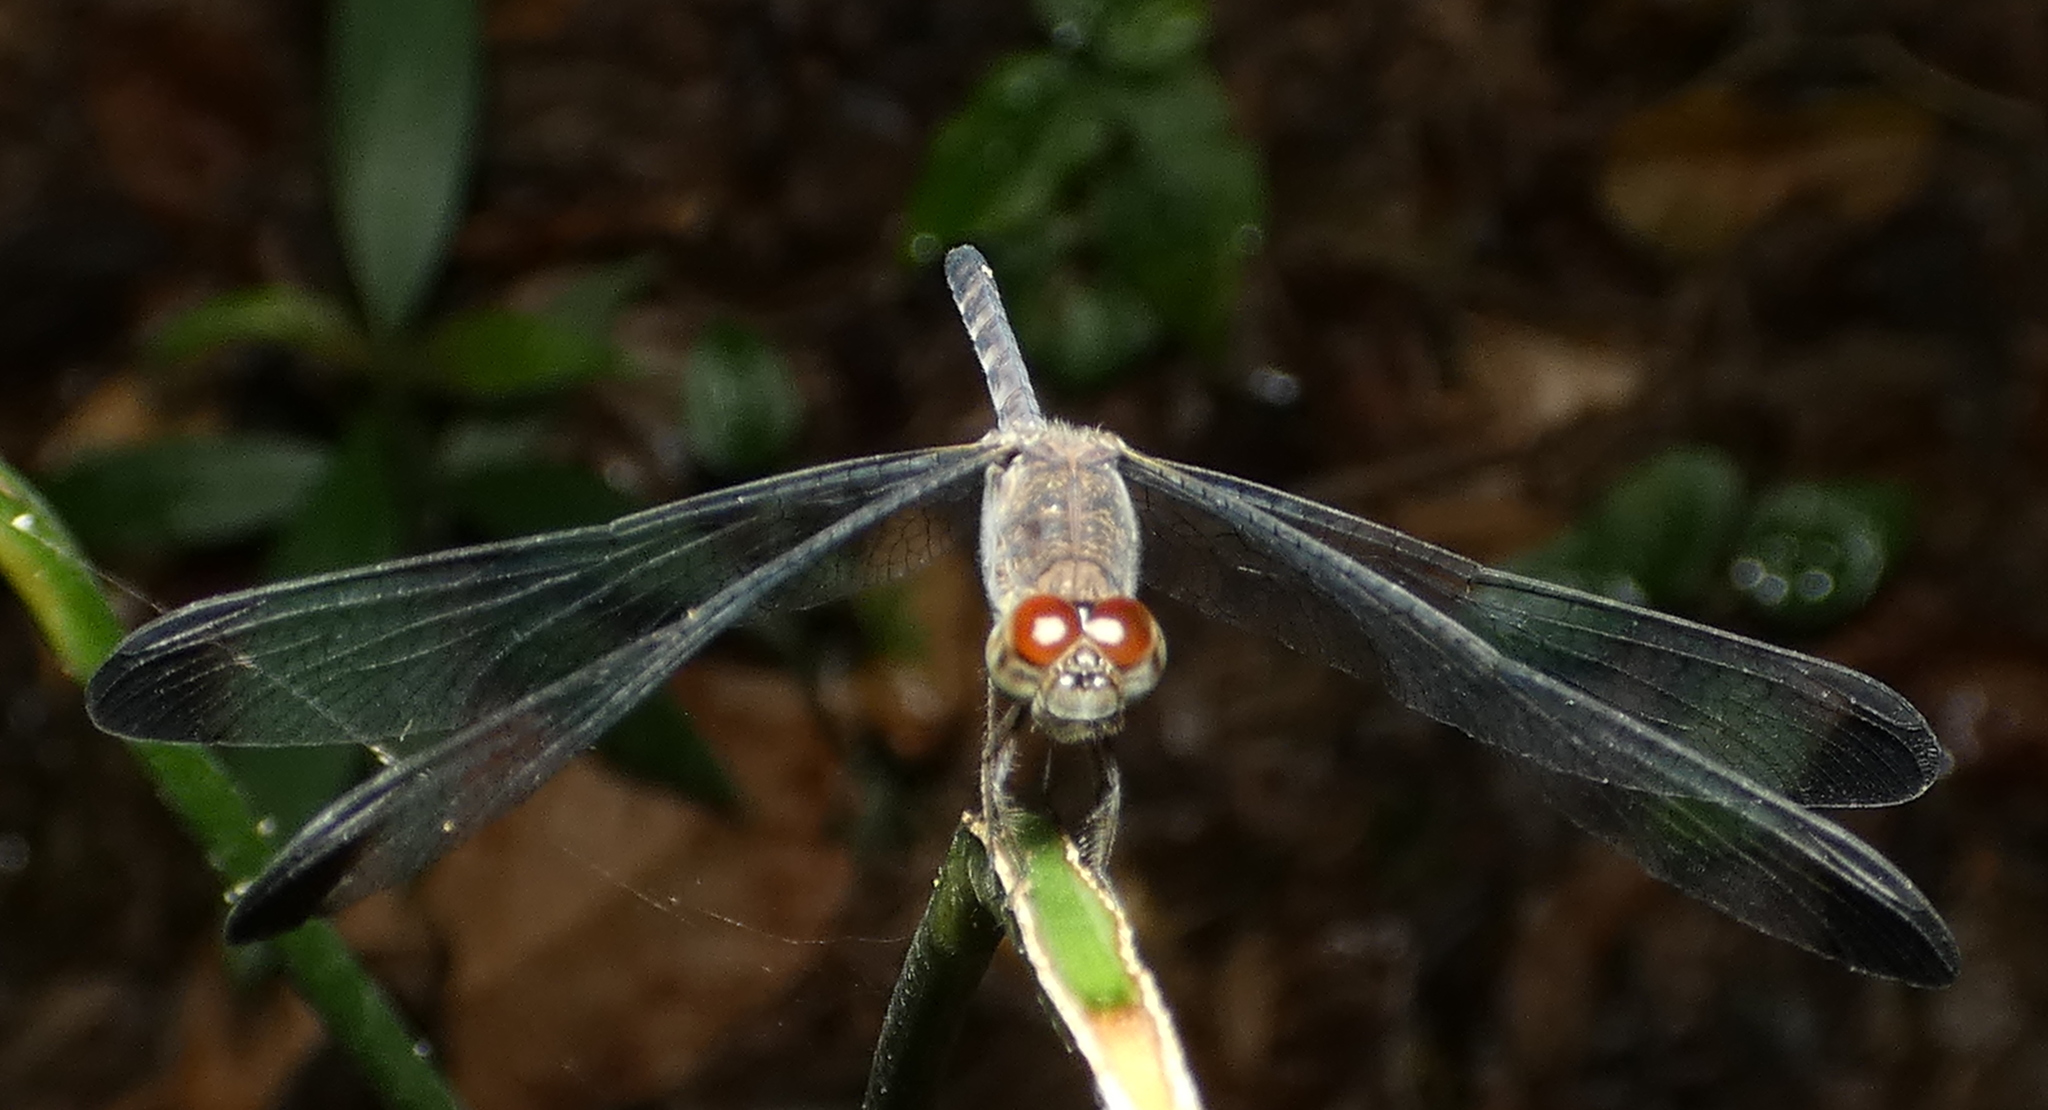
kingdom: Animalia
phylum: Arthropoda
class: Insecta
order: Odonata
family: Libellulidae
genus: Uracis
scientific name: Uracis imbuta
